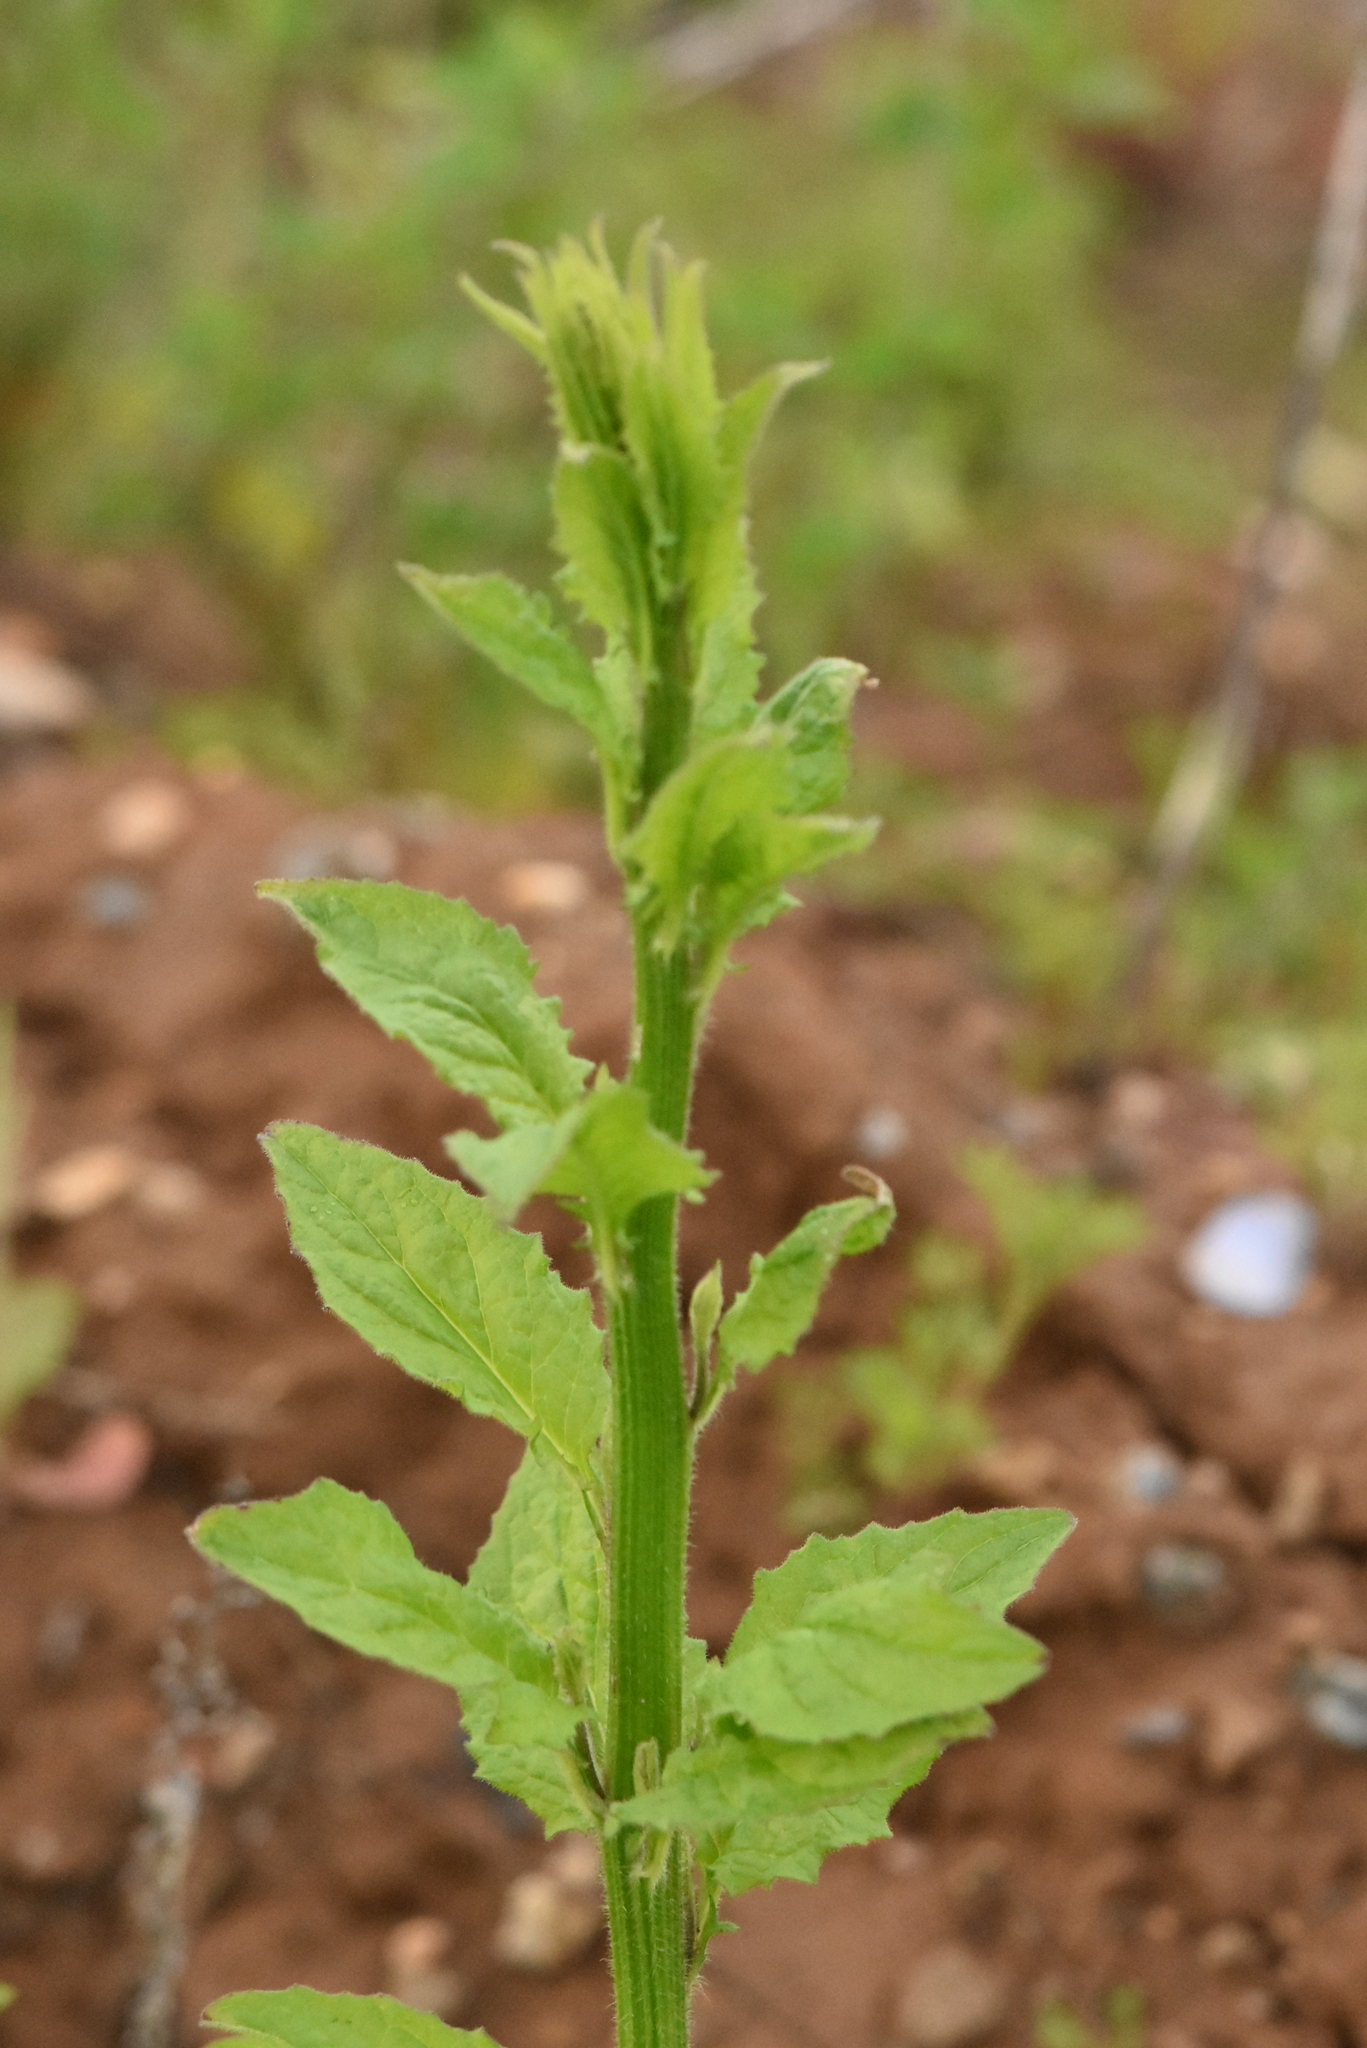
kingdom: Plantae
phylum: Tracheophyta
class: Magnoliopsida
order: Asterales
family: Asteraceae
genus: Lapsana
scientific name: Lapsana communis
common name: Nipplewort
